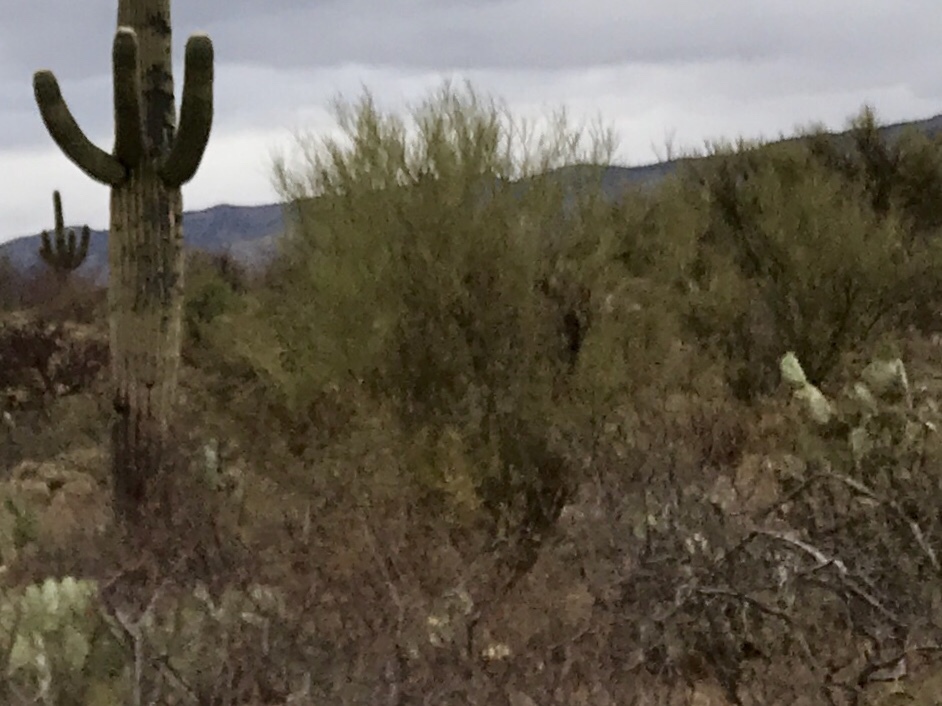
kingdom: Plantae
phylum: Tracheophyta
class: Magnoliopsida
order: Fabales
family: Fabaceae
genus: Parkinsonia
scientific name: Parkinsonia microphylla
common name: Yellow paloverde
